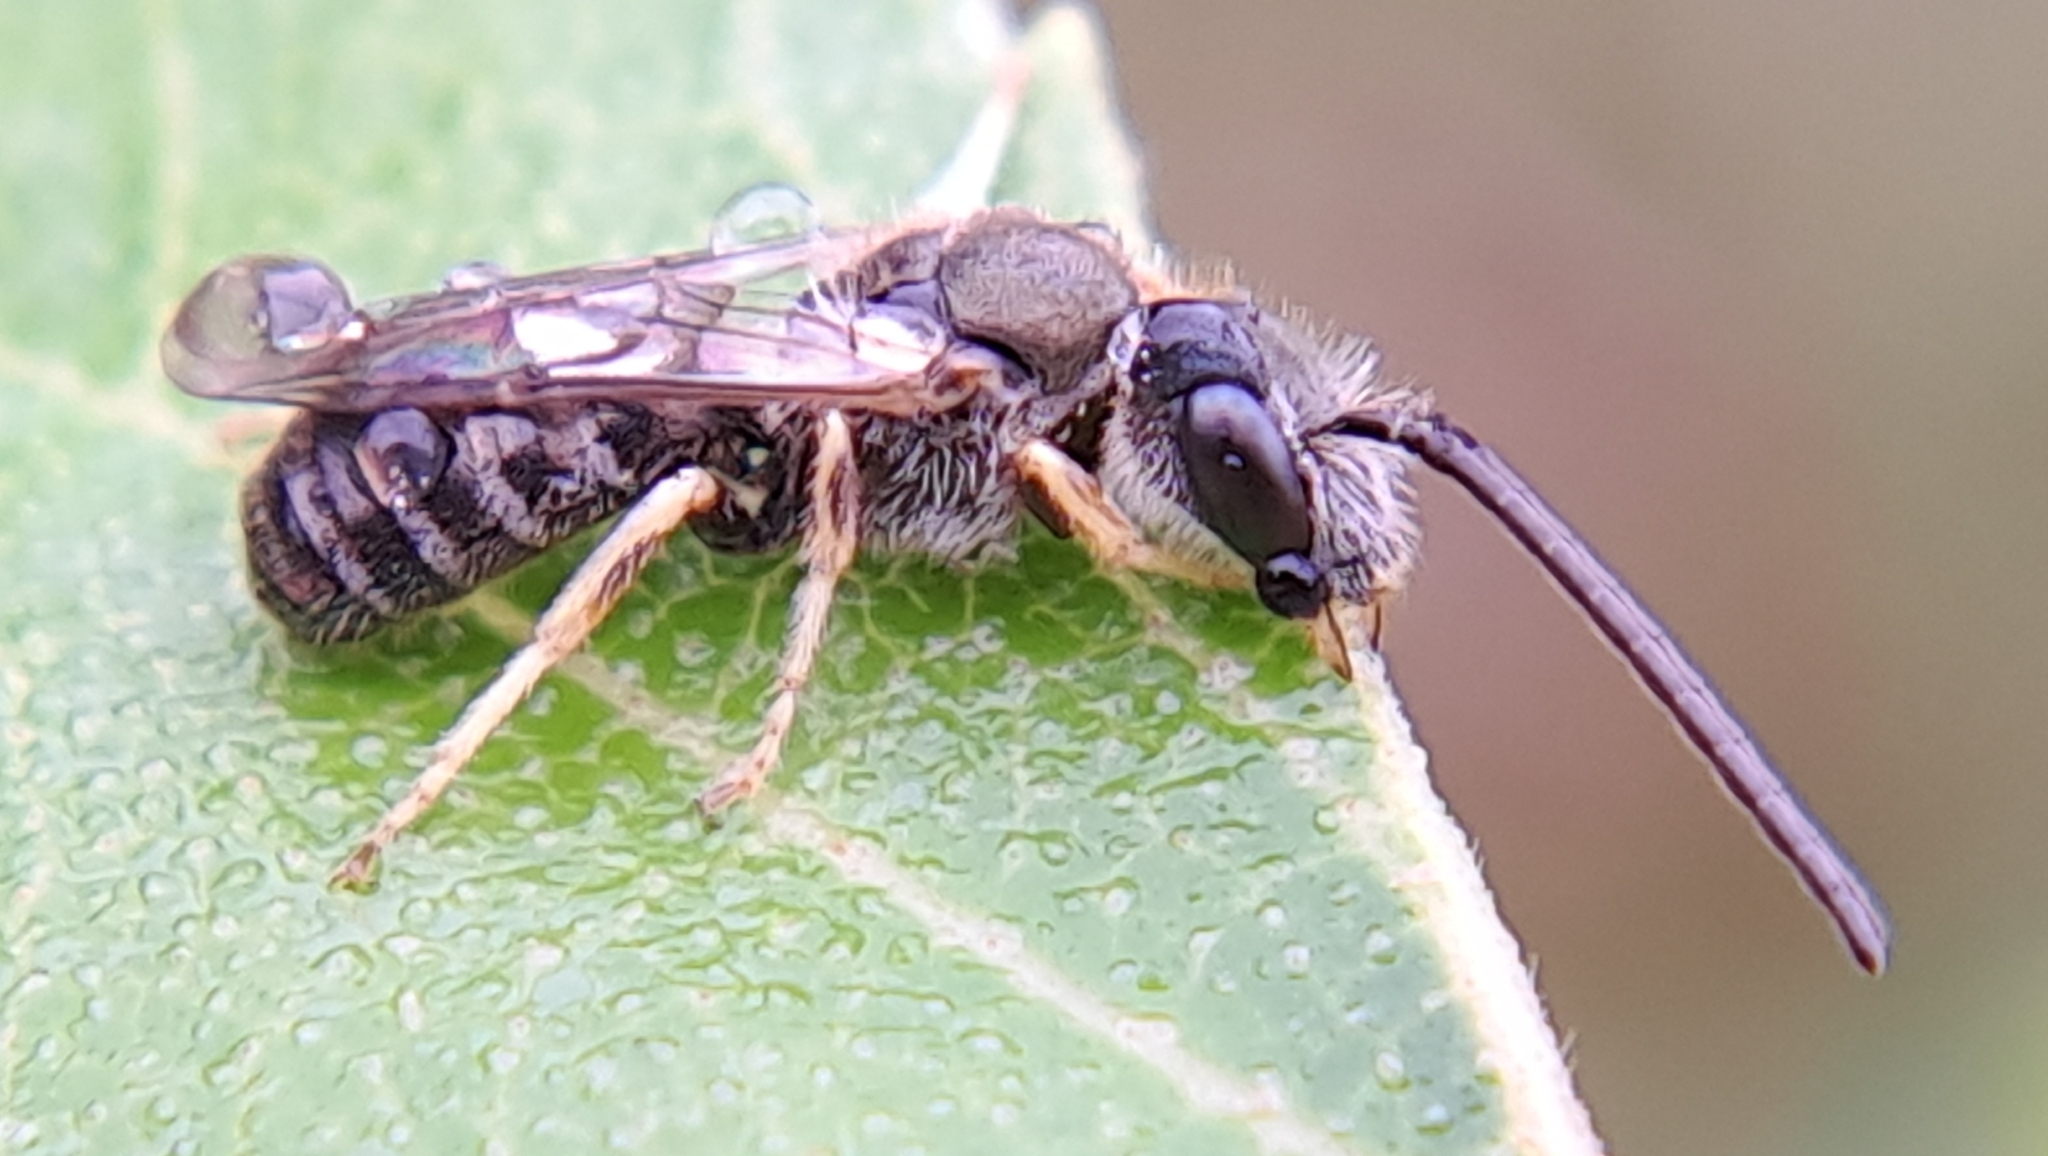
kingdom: Animalia
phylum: Arthropoda
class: Insecta
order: Hymenoptera
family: Halictidae
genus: Halictus
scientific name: Halictus confusus
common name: Southern bronze furrow bee
